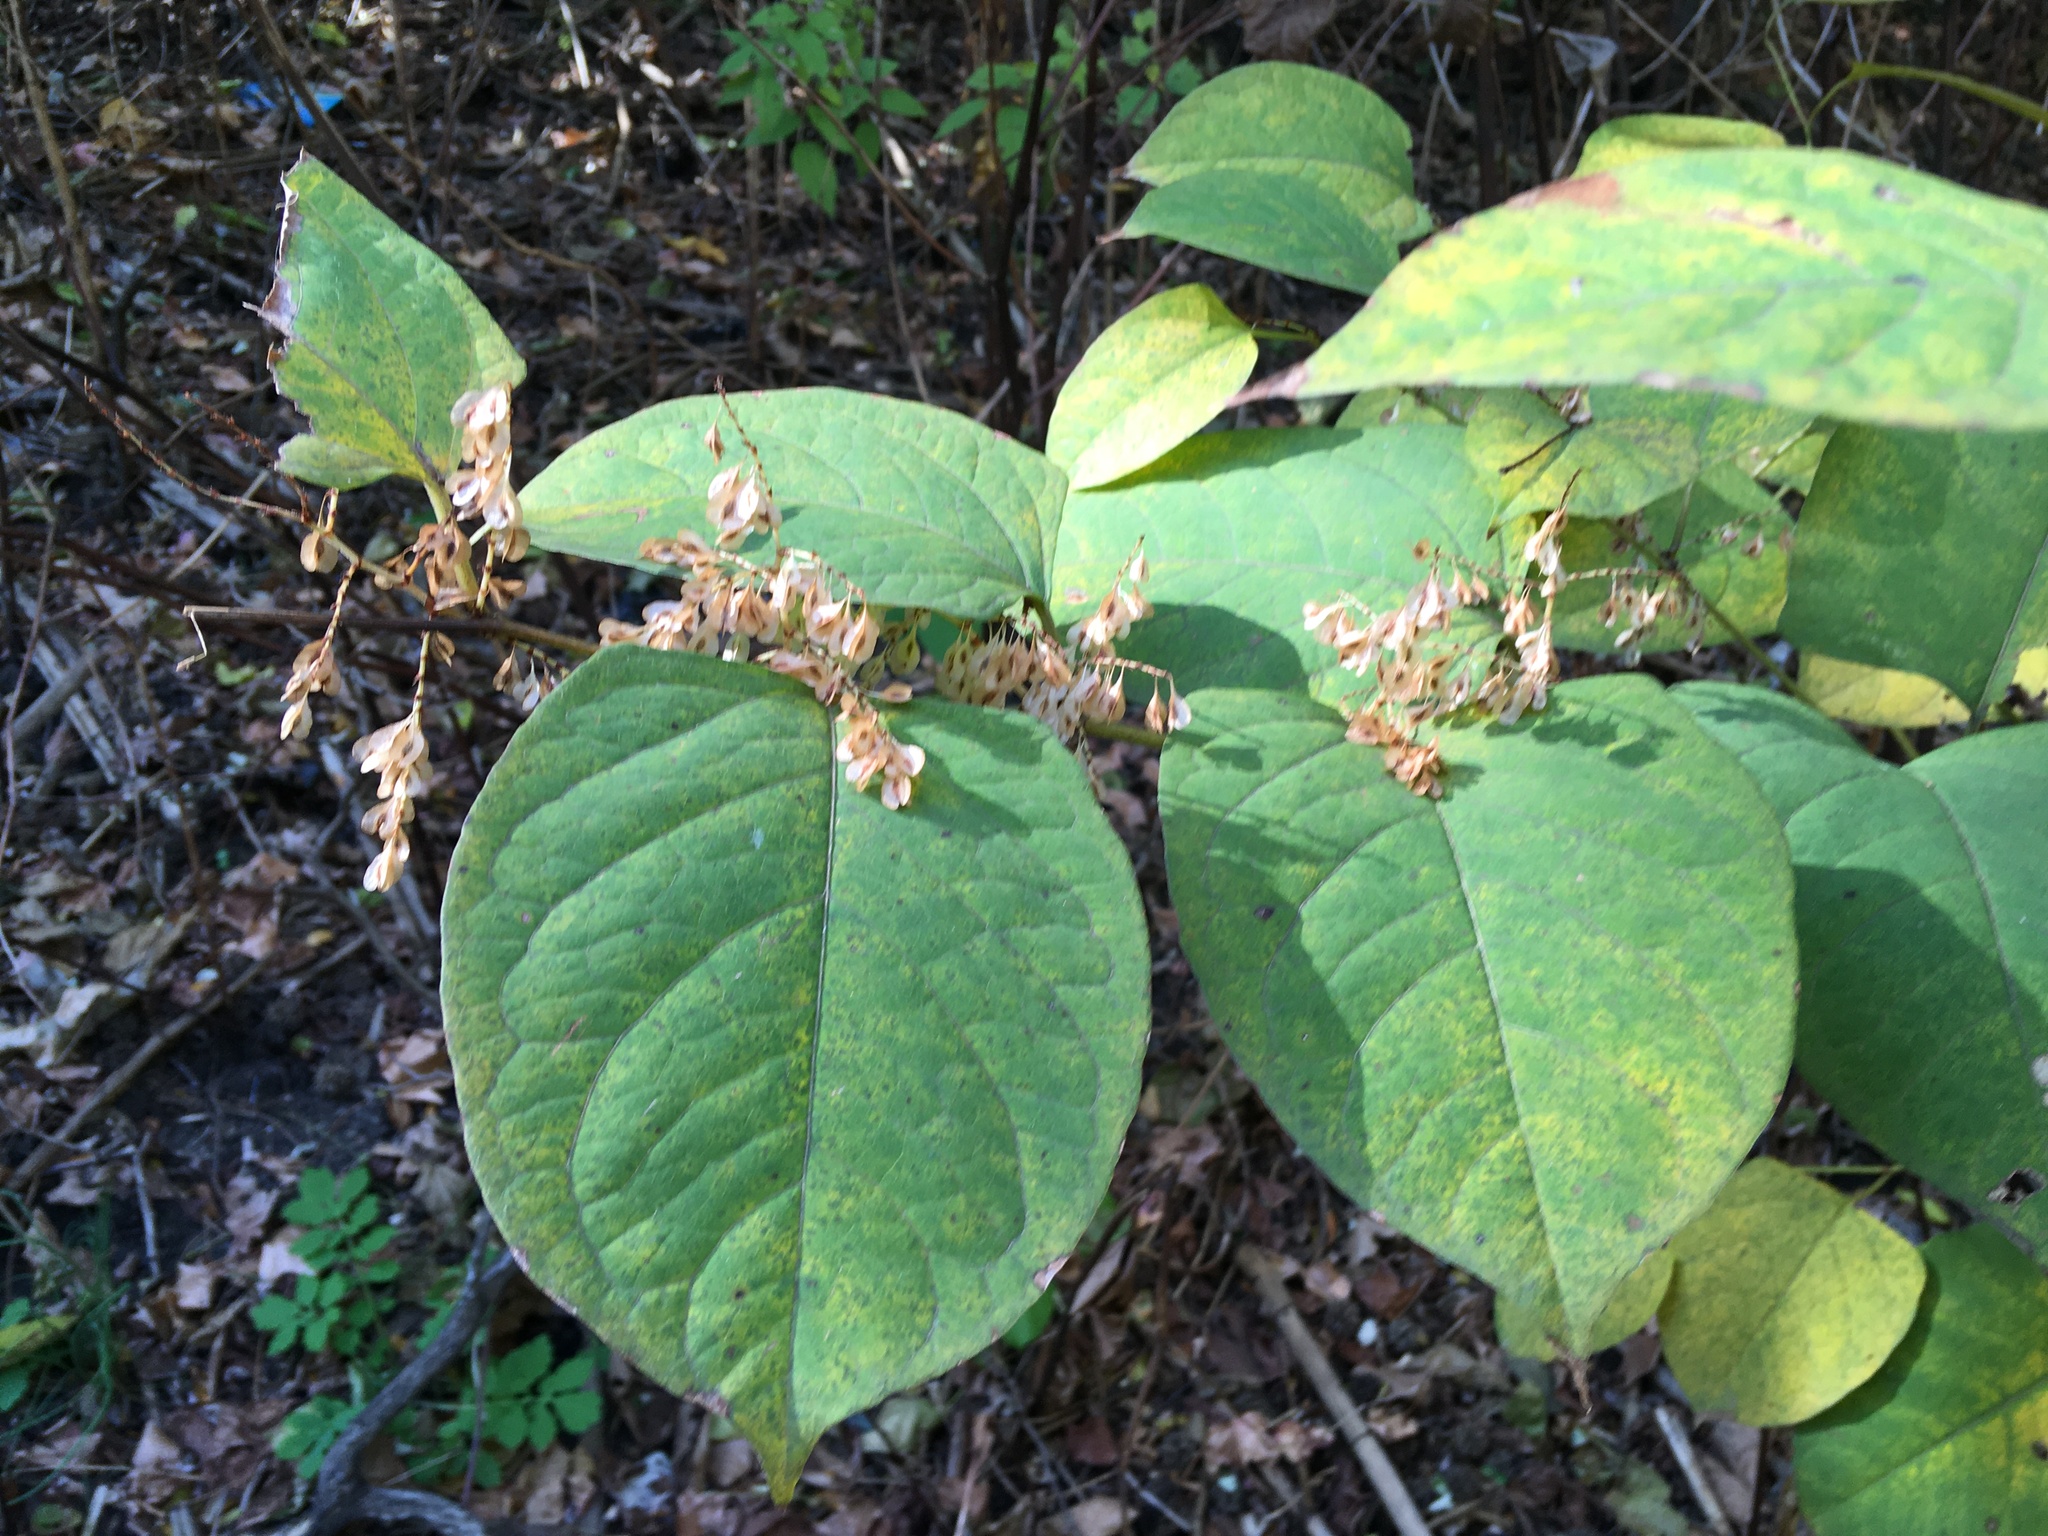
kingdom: Plantae
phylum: Tracheophyta
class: Magnoliopsida
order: Caryophyllales
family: Polygonaceae
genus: Reynoutria
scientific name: Reynoutria japonica
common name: Japanese knotweed
